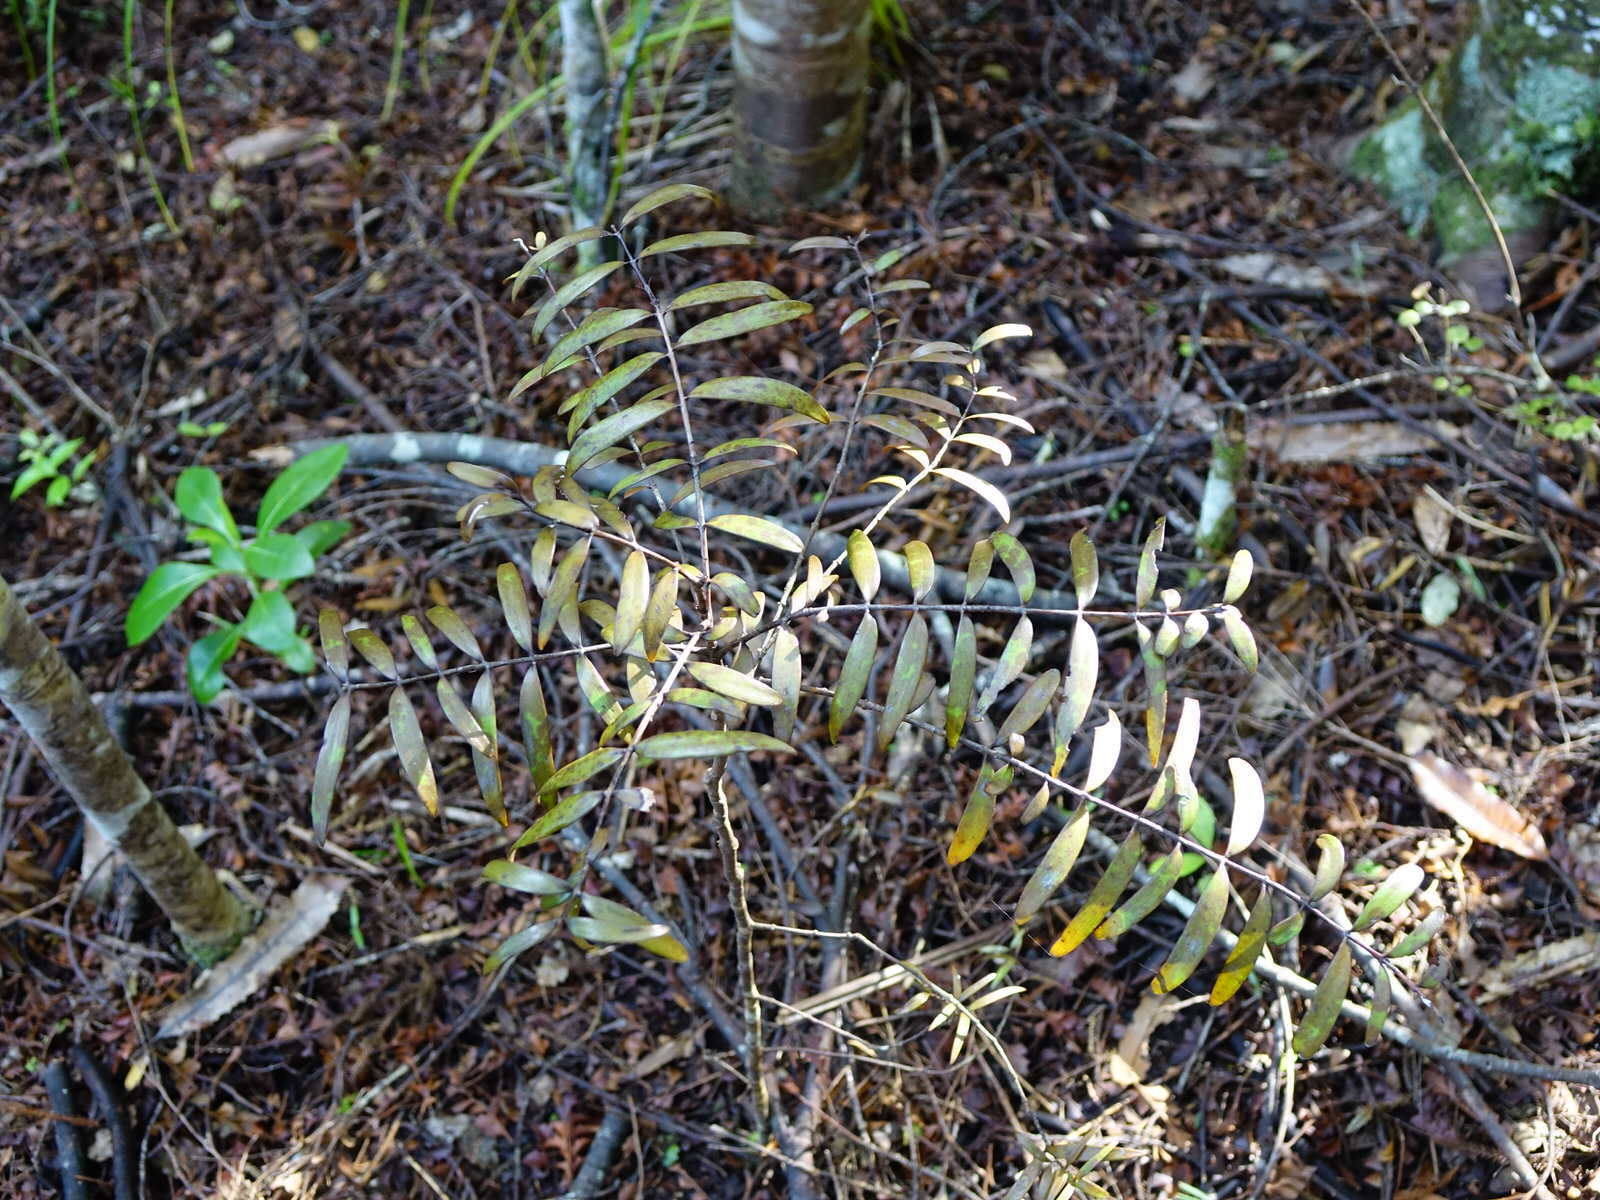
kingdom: Plantae
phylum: Tracheophyta
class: Pinopsida
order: Pinales
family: Araucariaceae
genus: Agathis
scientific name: Agathis australis
